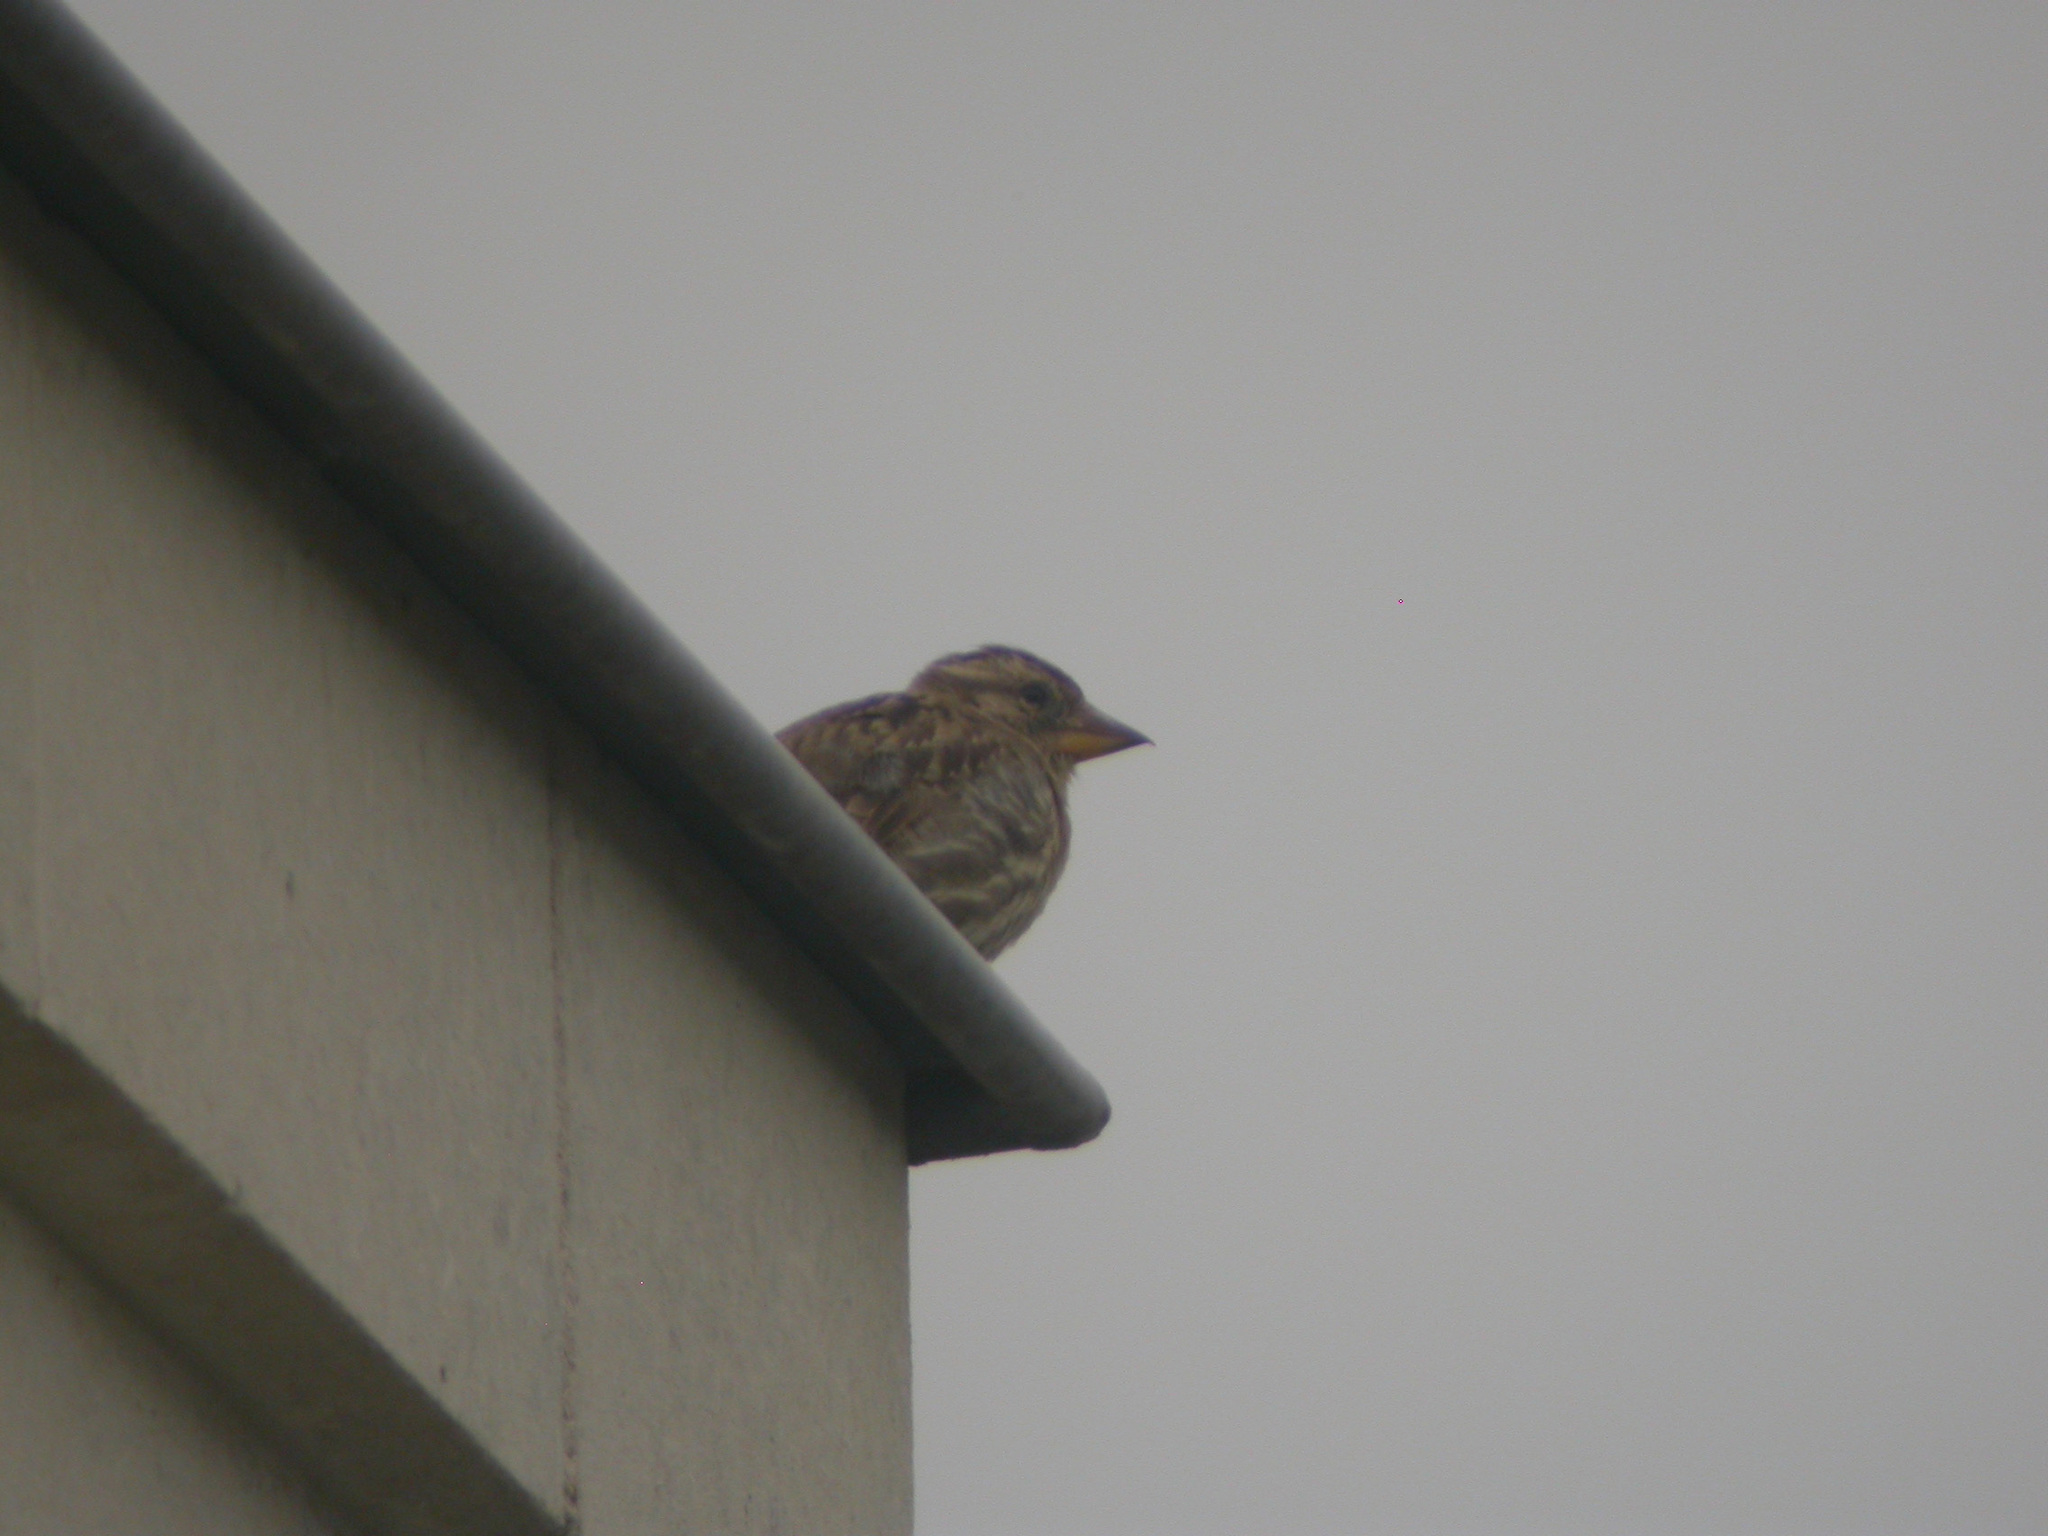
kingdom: Animalia
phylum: Chordata
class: Aves
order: Passeriformes
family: Passeridae
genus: Petronia
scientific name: Petronia petronia
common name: Rock sparrow
